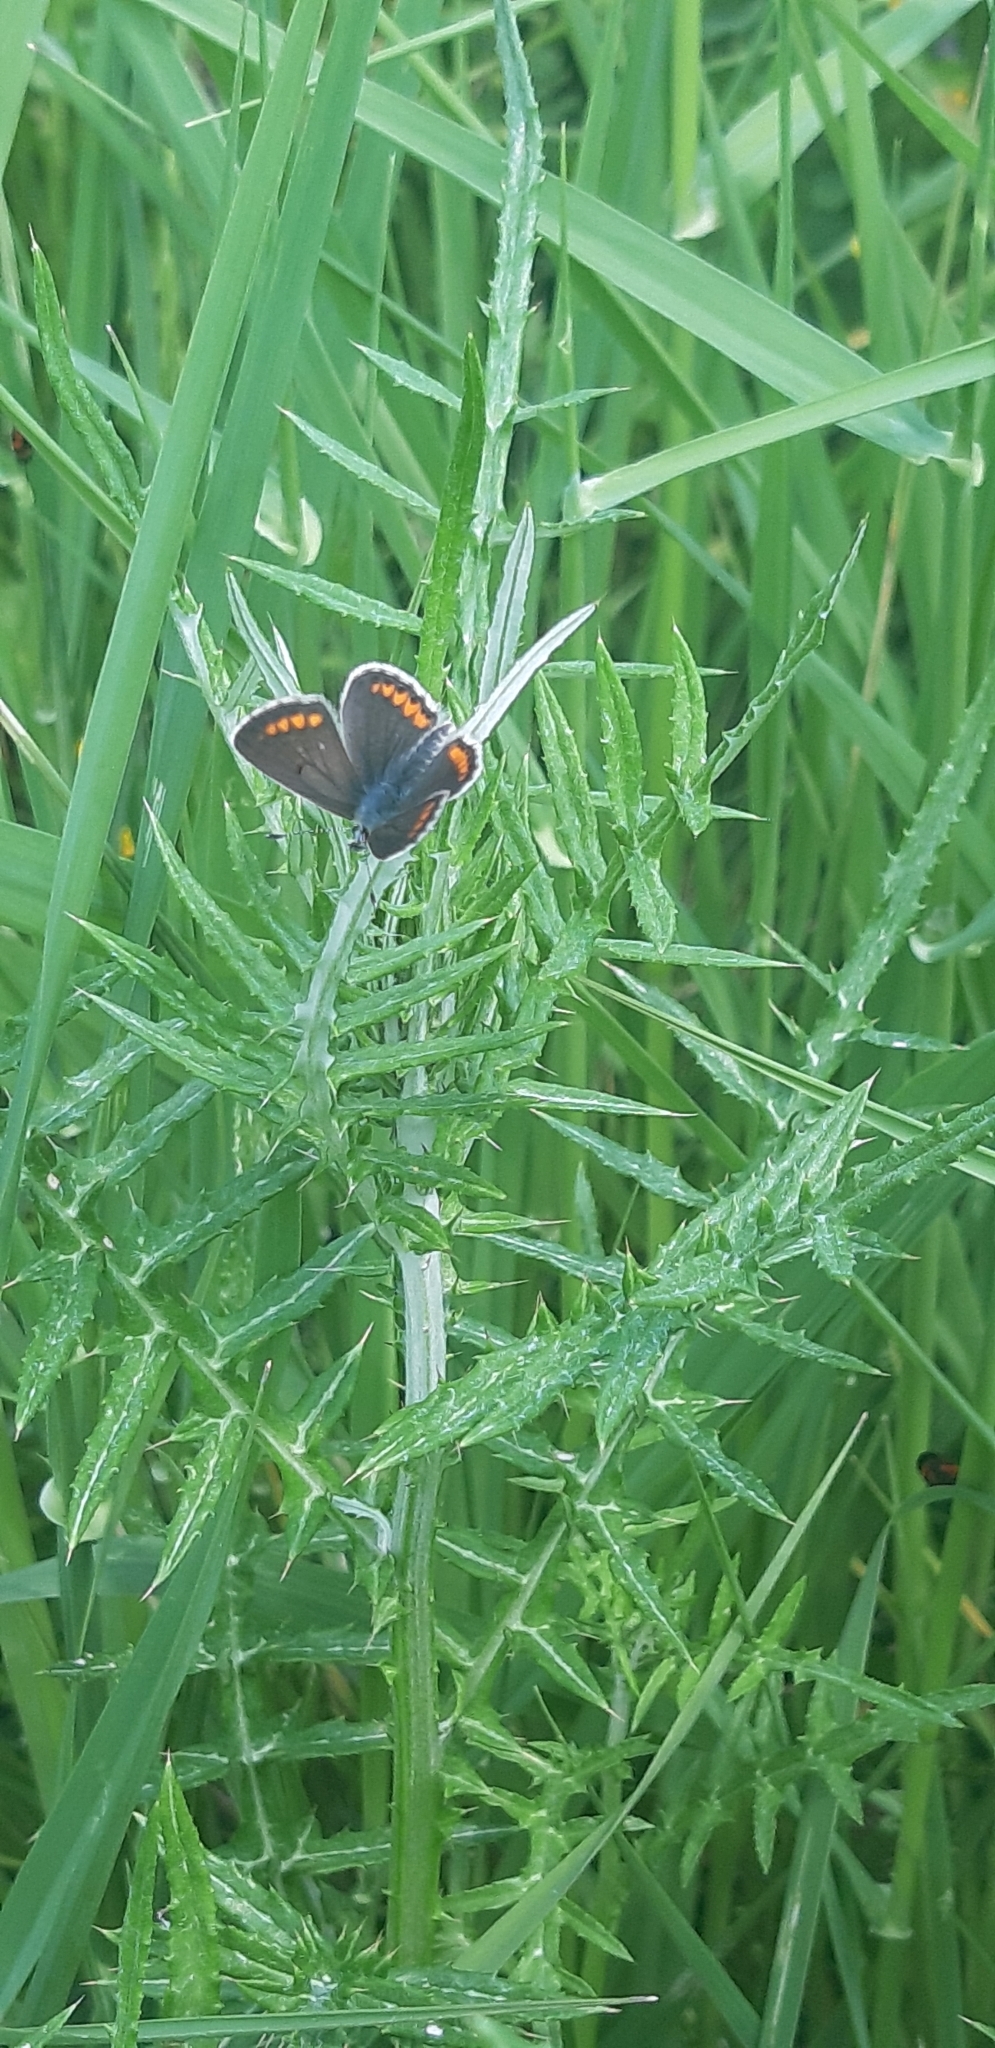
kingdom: Animalia
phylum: Arthropoda
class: Insecta
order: Lepidoptera
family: Lycaenidae
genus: Aricia
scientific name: Aricia agestis
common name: Brown argus
